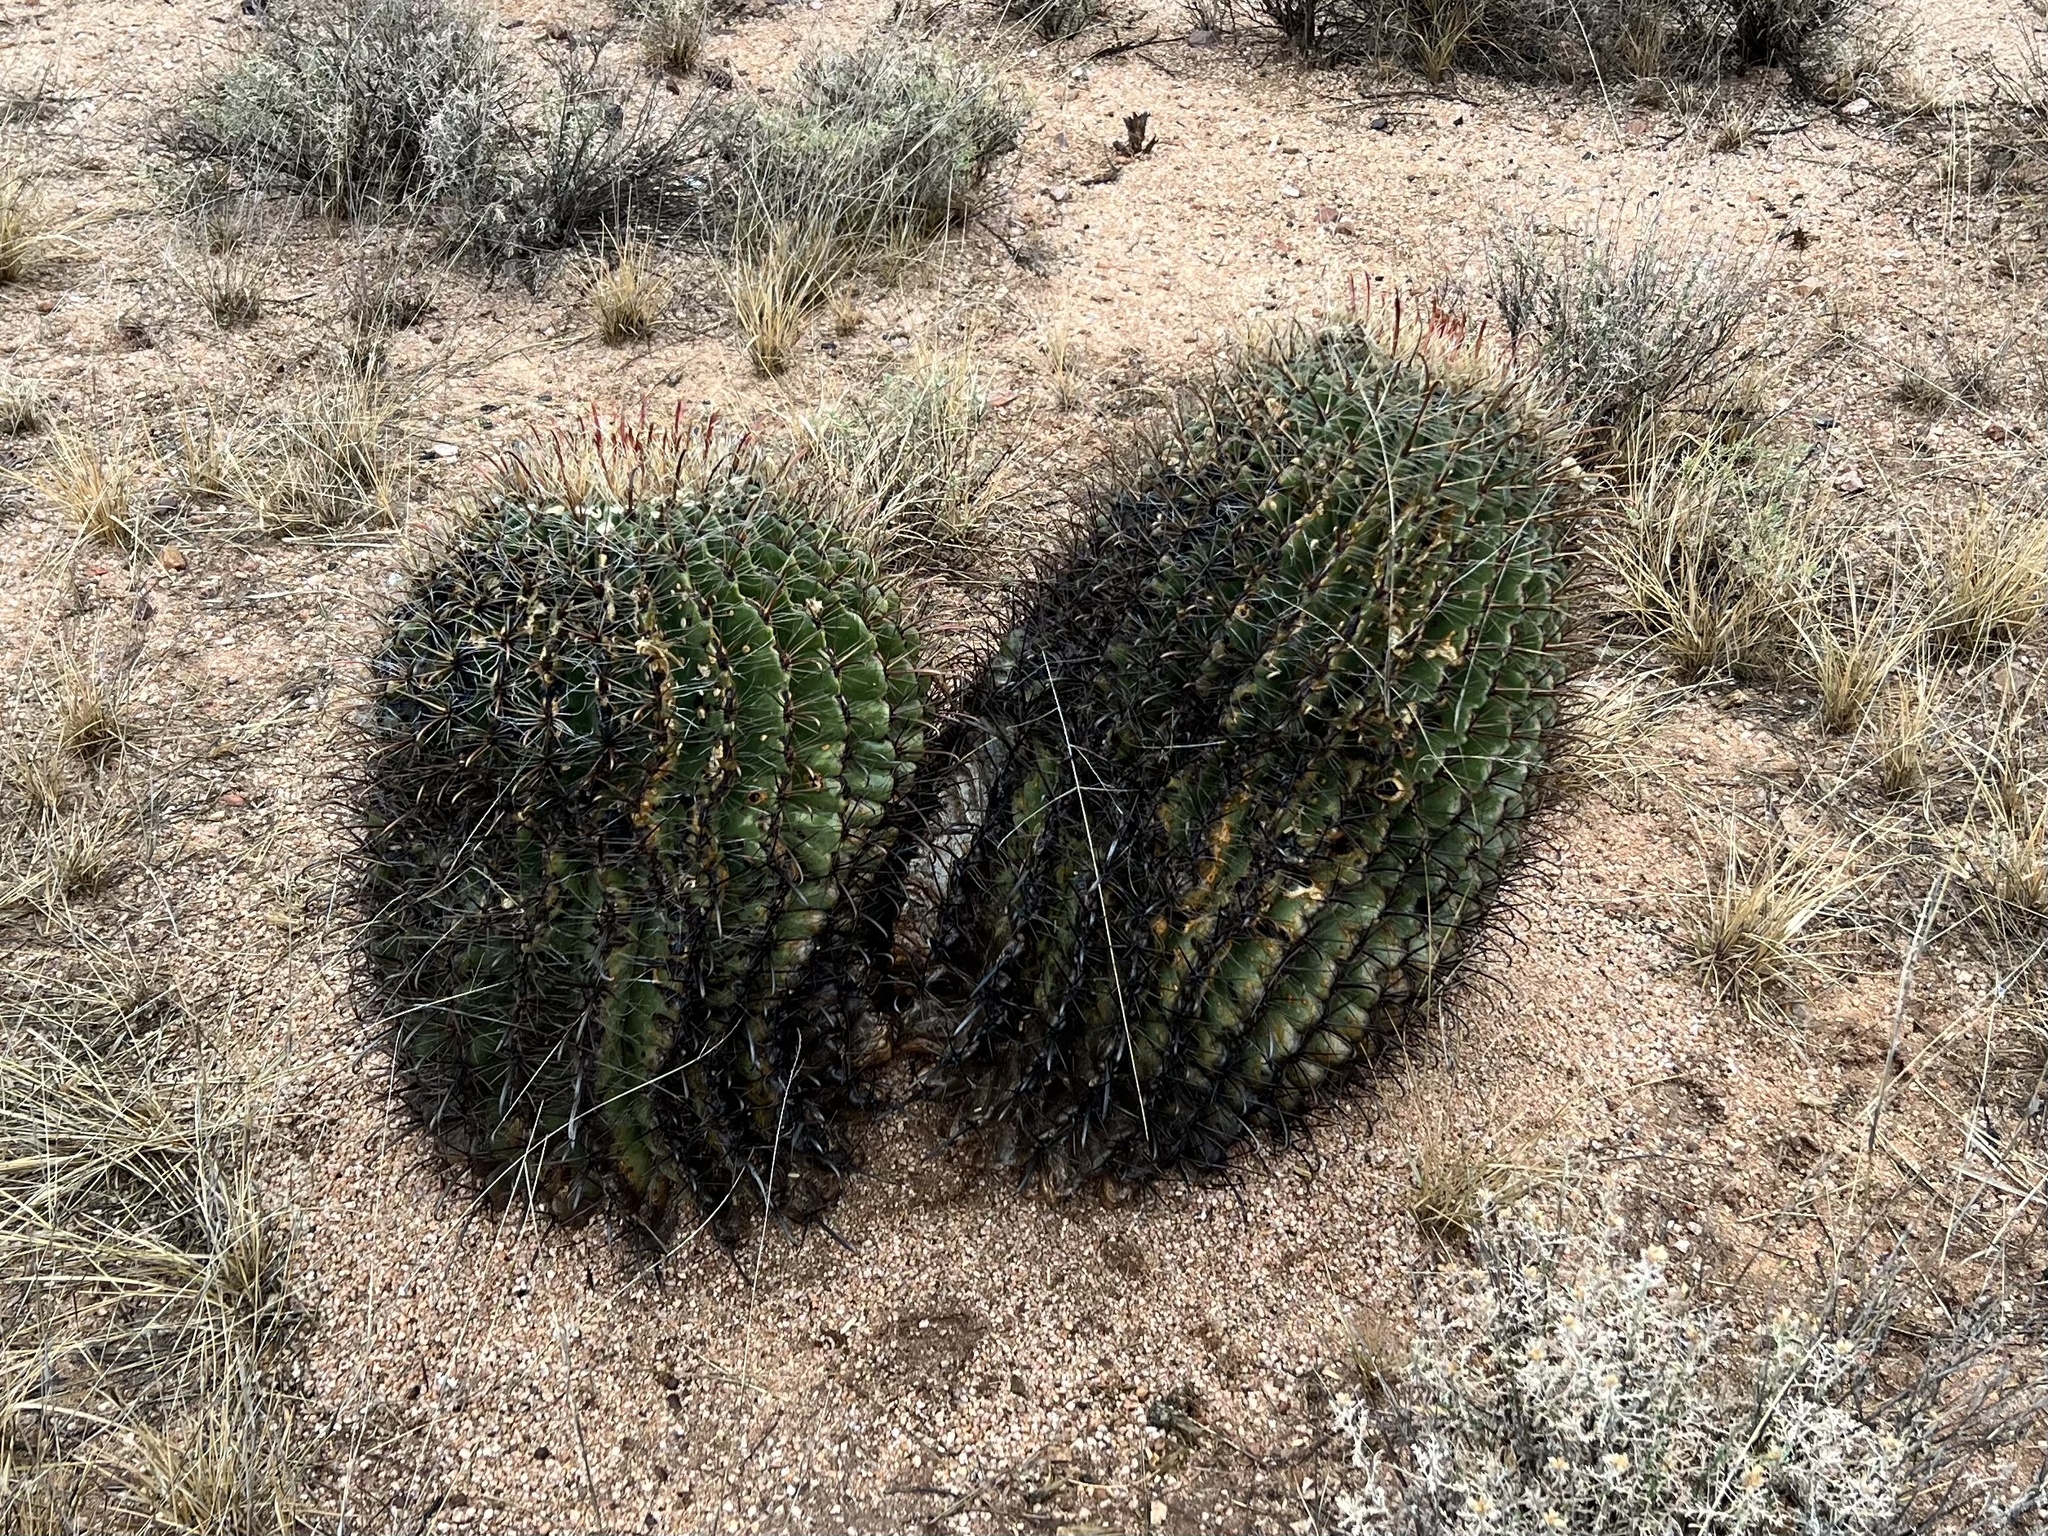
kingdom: Plantae
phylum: Tracheophyta
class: Magnoliopsida
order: Caryophyllales
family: Cactaceae
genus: Ferocactus
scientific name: Ferocactus wislizeni
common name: Candy barrel cactus
